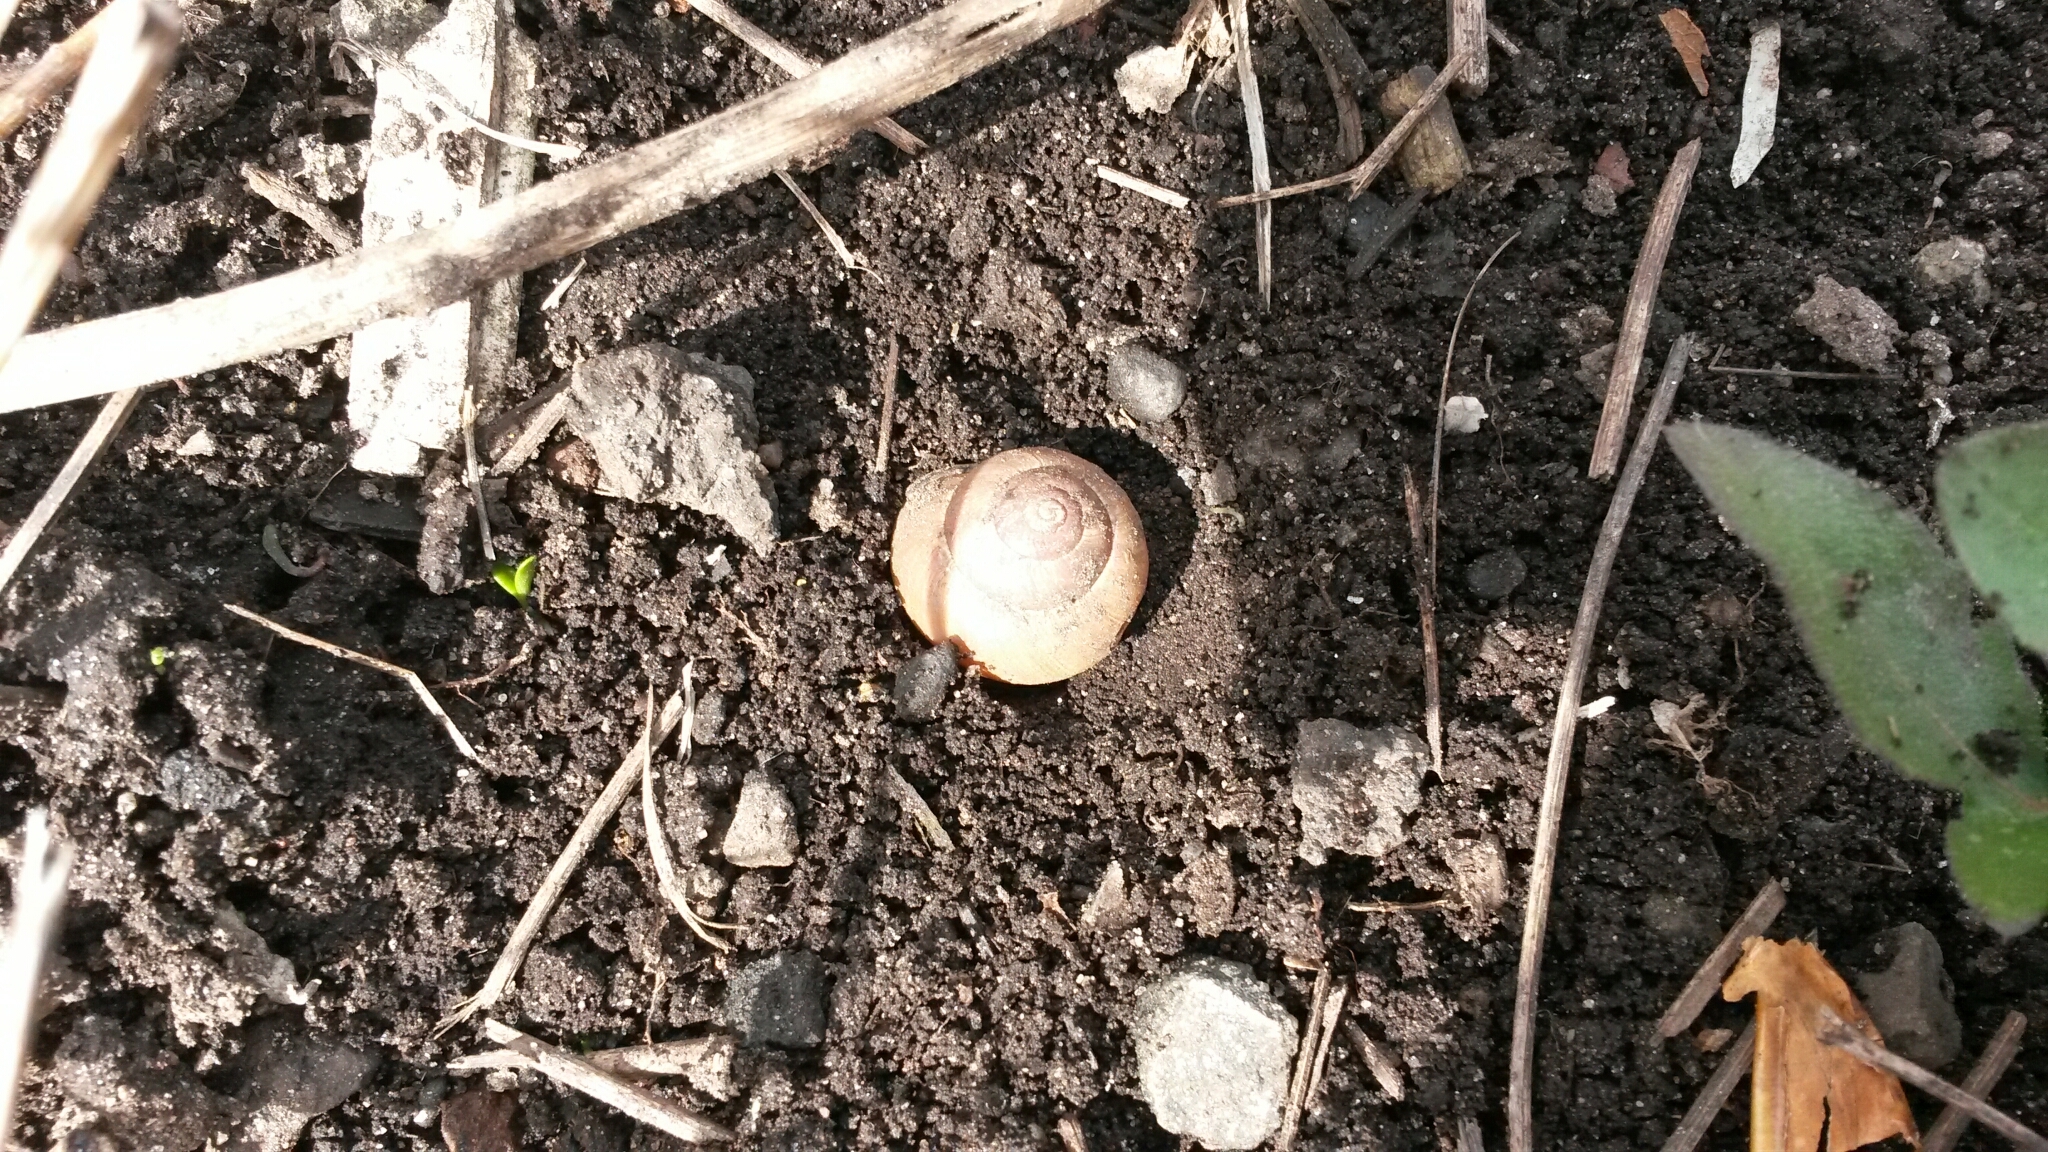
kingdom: Animalia
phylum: Mollusca
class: Gastropoda
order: Stylommatophora
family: Helicidae
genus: Cepaea
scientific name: Cepaea nemoralis
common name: Grovesnail
